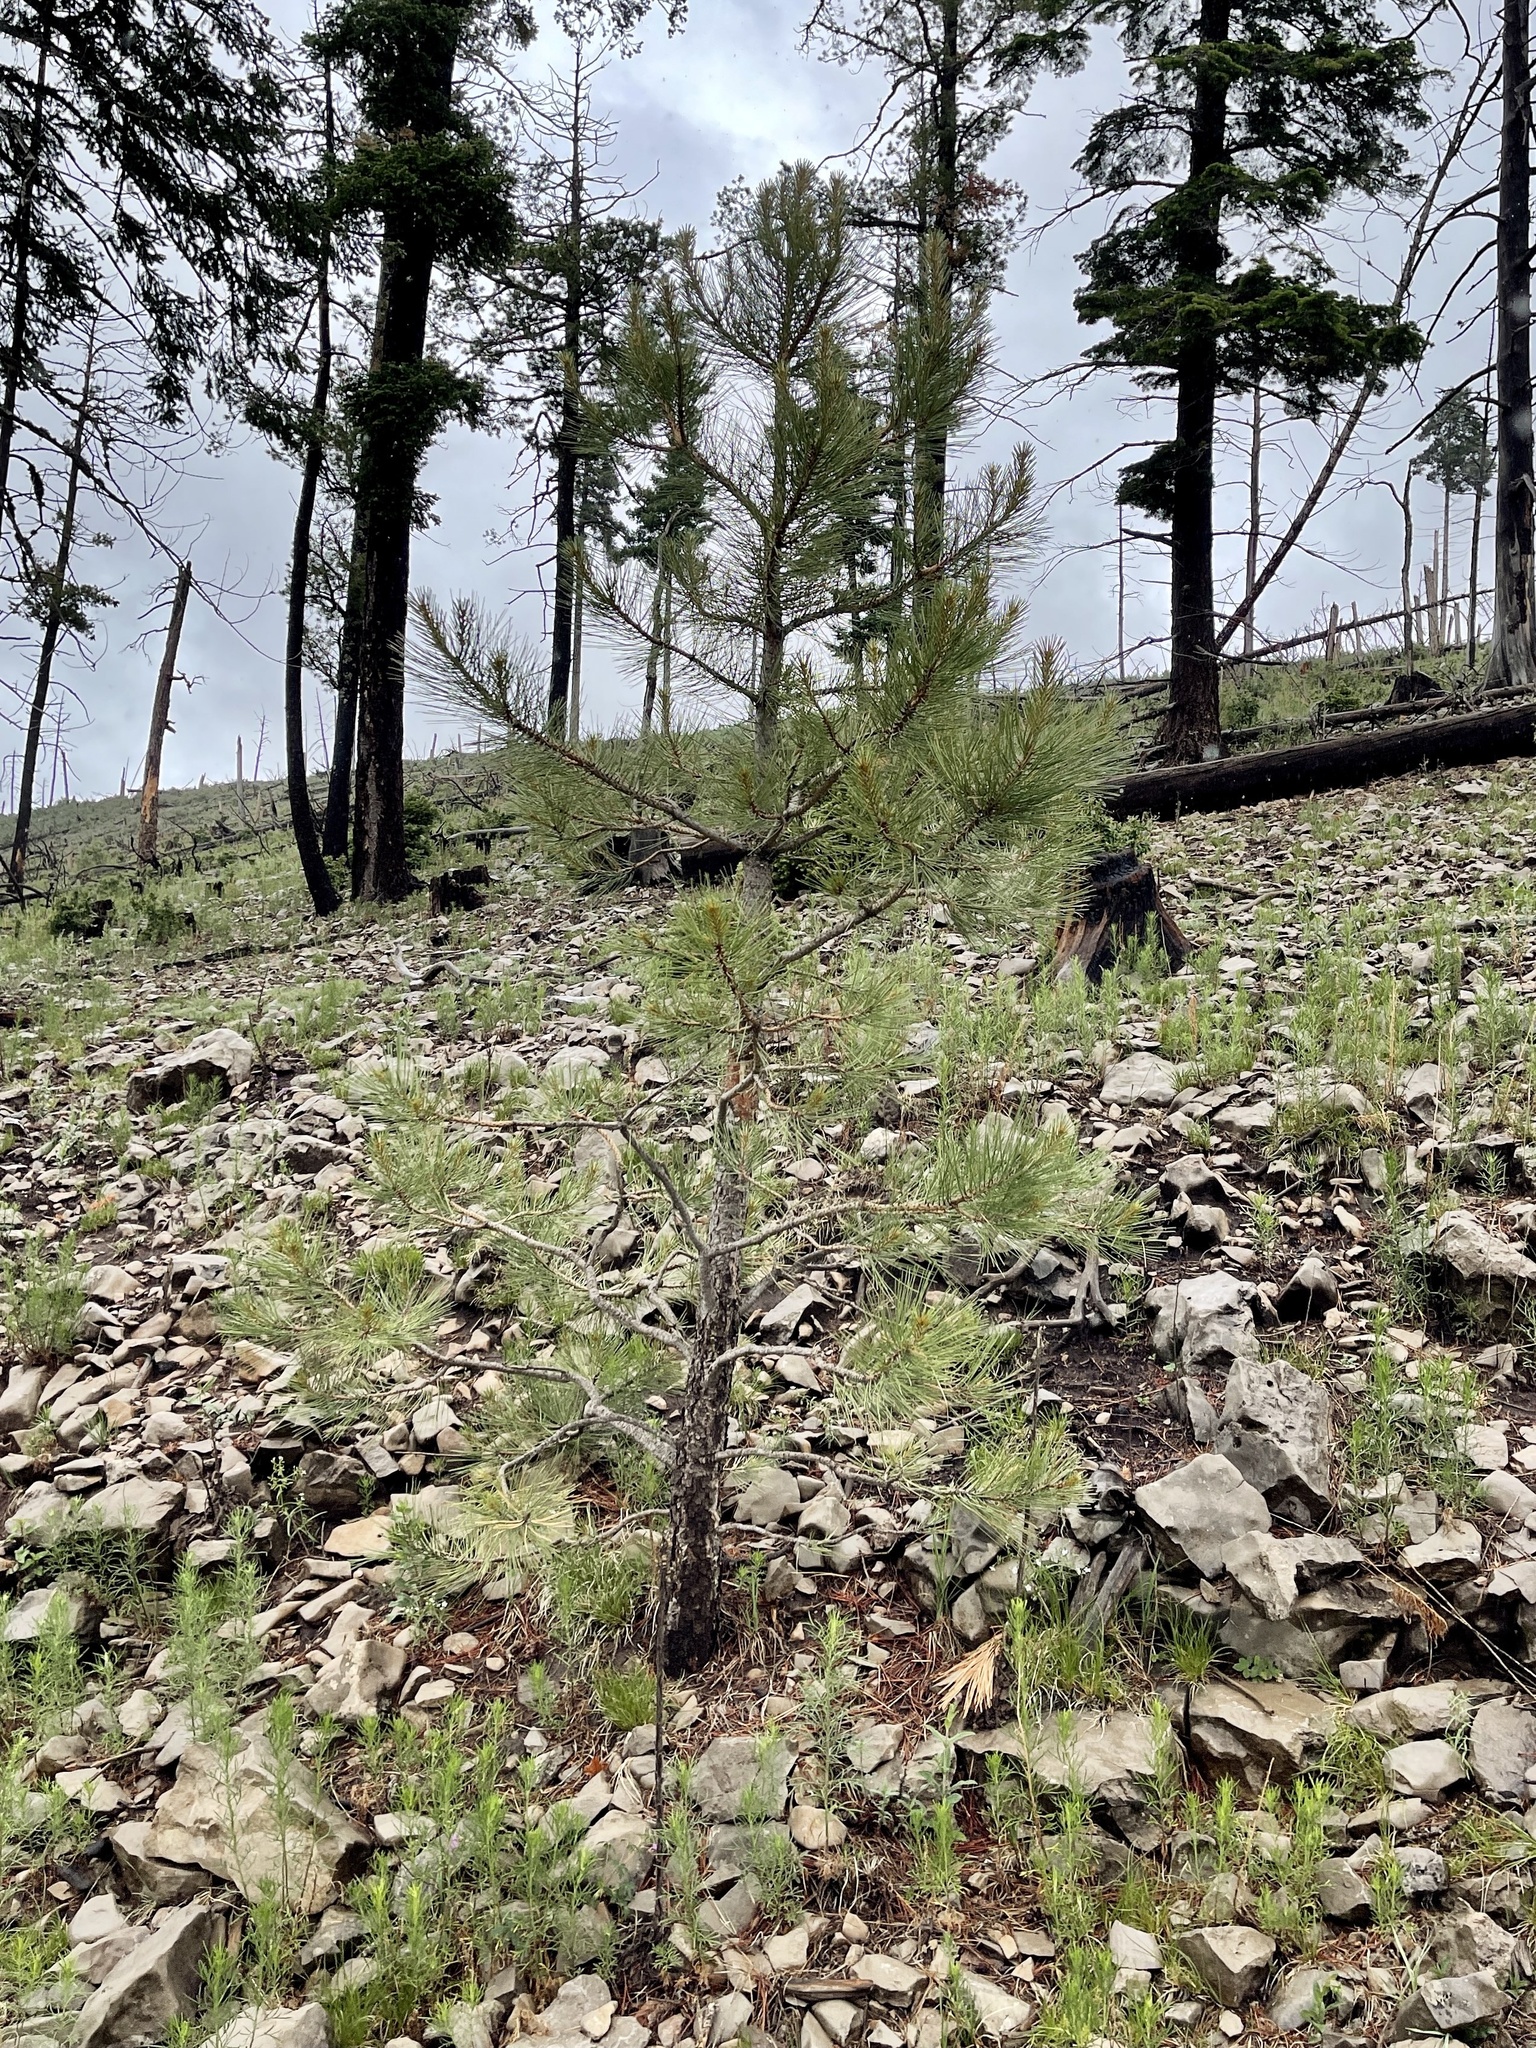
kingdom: Plantae
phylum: Tracheophyta
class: Pinopsida
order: Pinales
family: Pinaceae
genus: Pinus
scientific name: Pinus ponderosa
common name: Western yellow-pine
